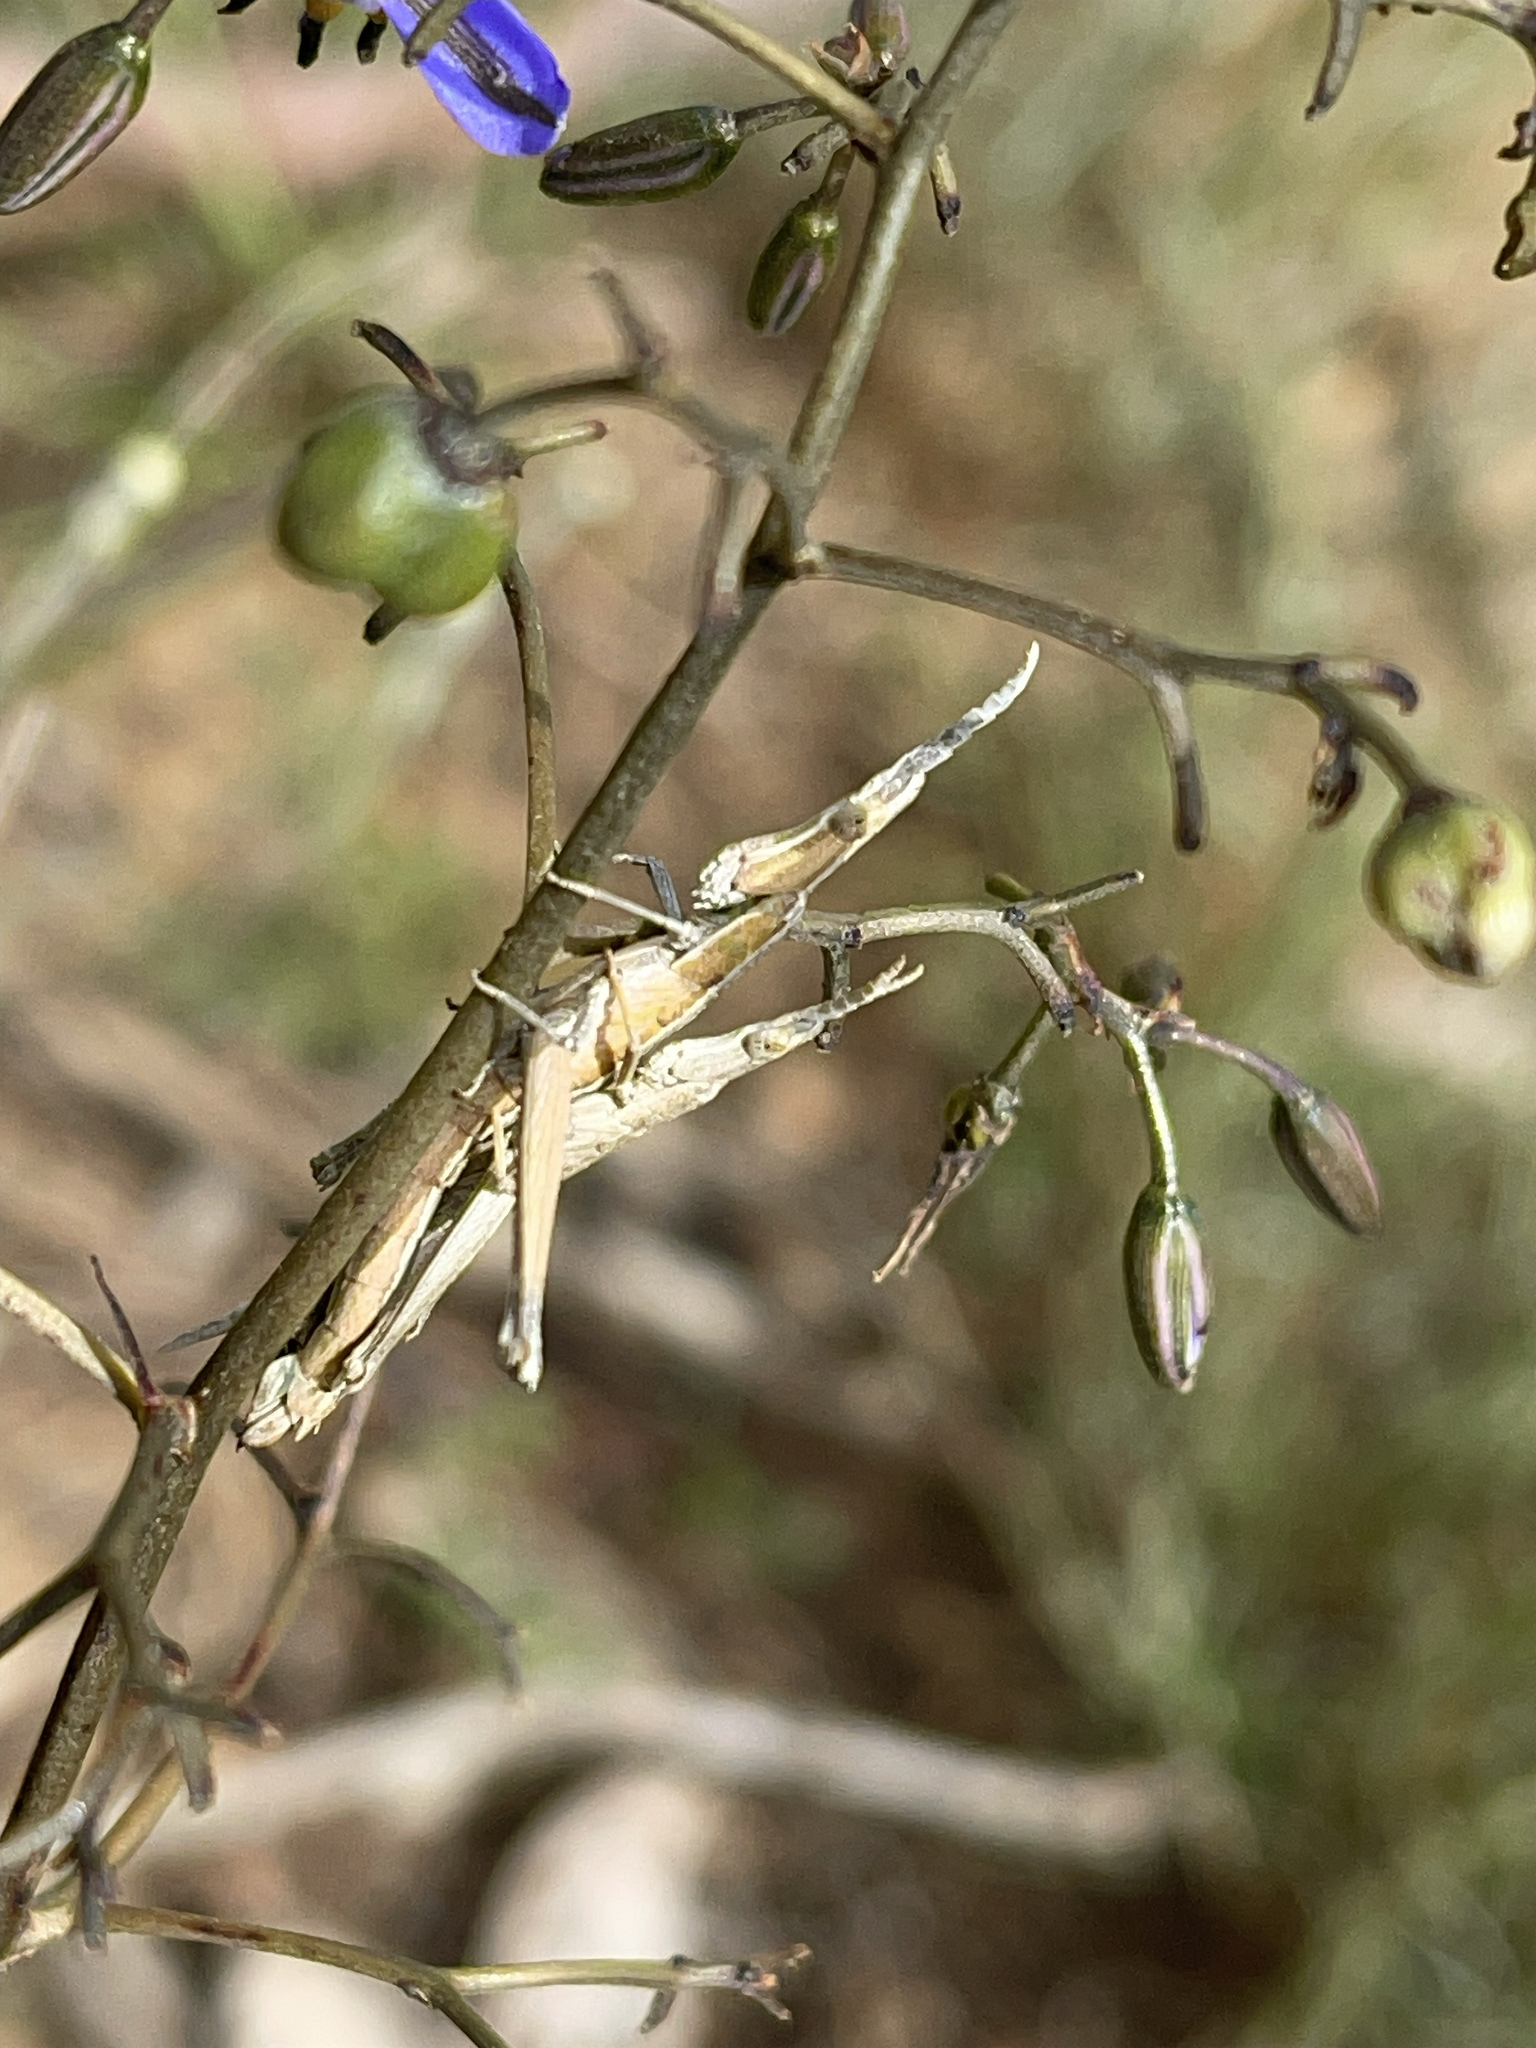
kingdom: Animalia
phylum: Arthropoda
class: Insecta
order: Orthoptera
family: Morabidae
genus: Vandiemenella
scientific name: Vandiemenella viatica
